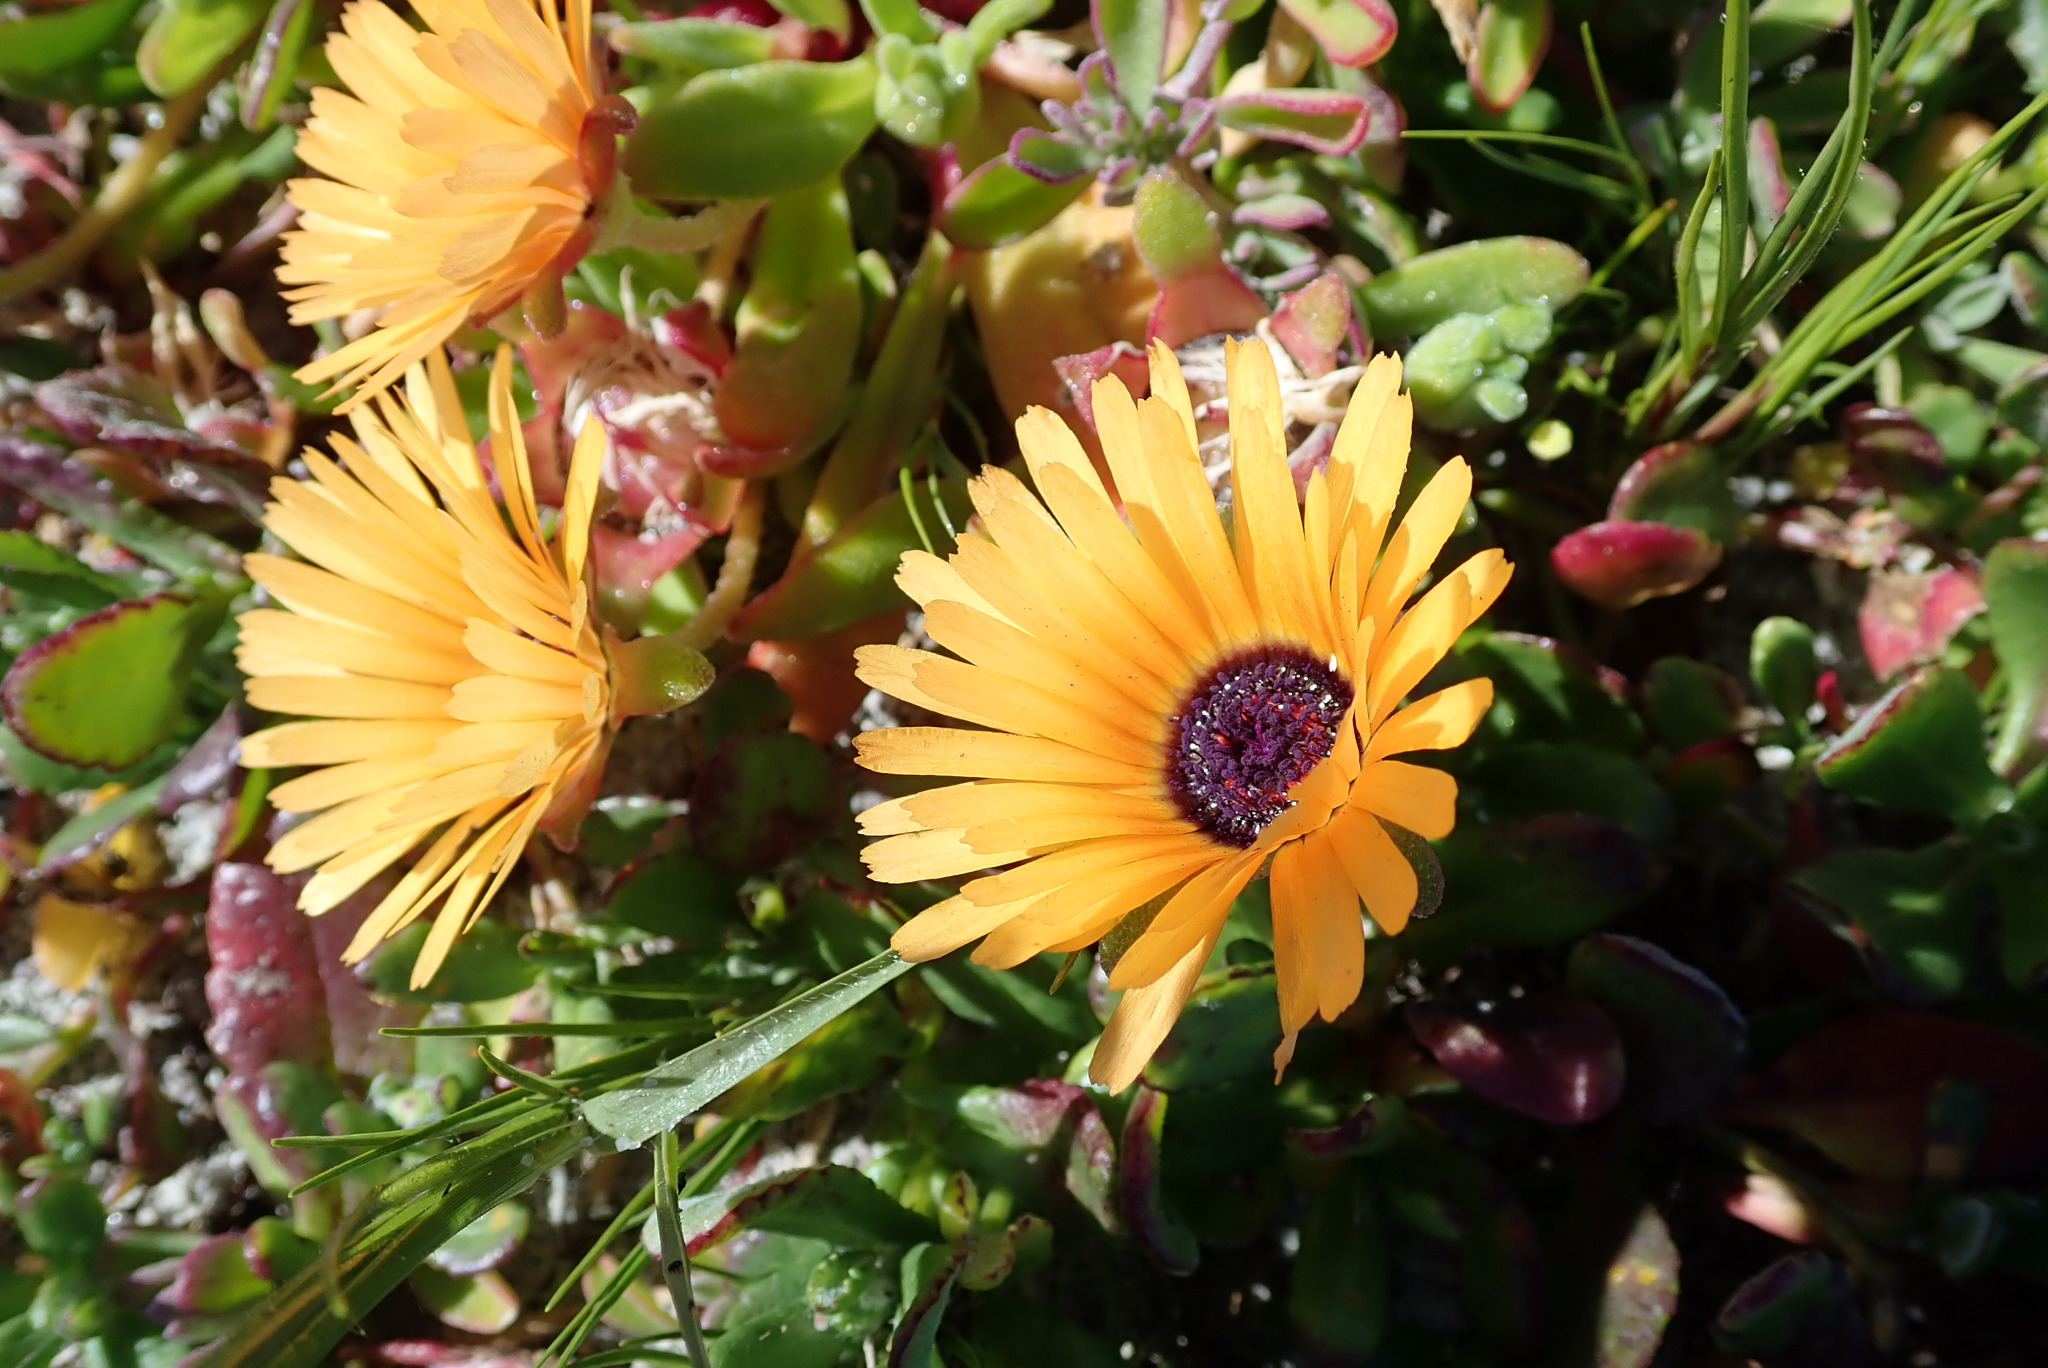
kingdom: Plantae
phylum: Tracheophyta
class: Magnoliopsida
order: Caryophyllales
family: Aizoaceae
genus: Cleretum
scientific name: Cleretum bellidiforme
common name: Livingstone daisy
